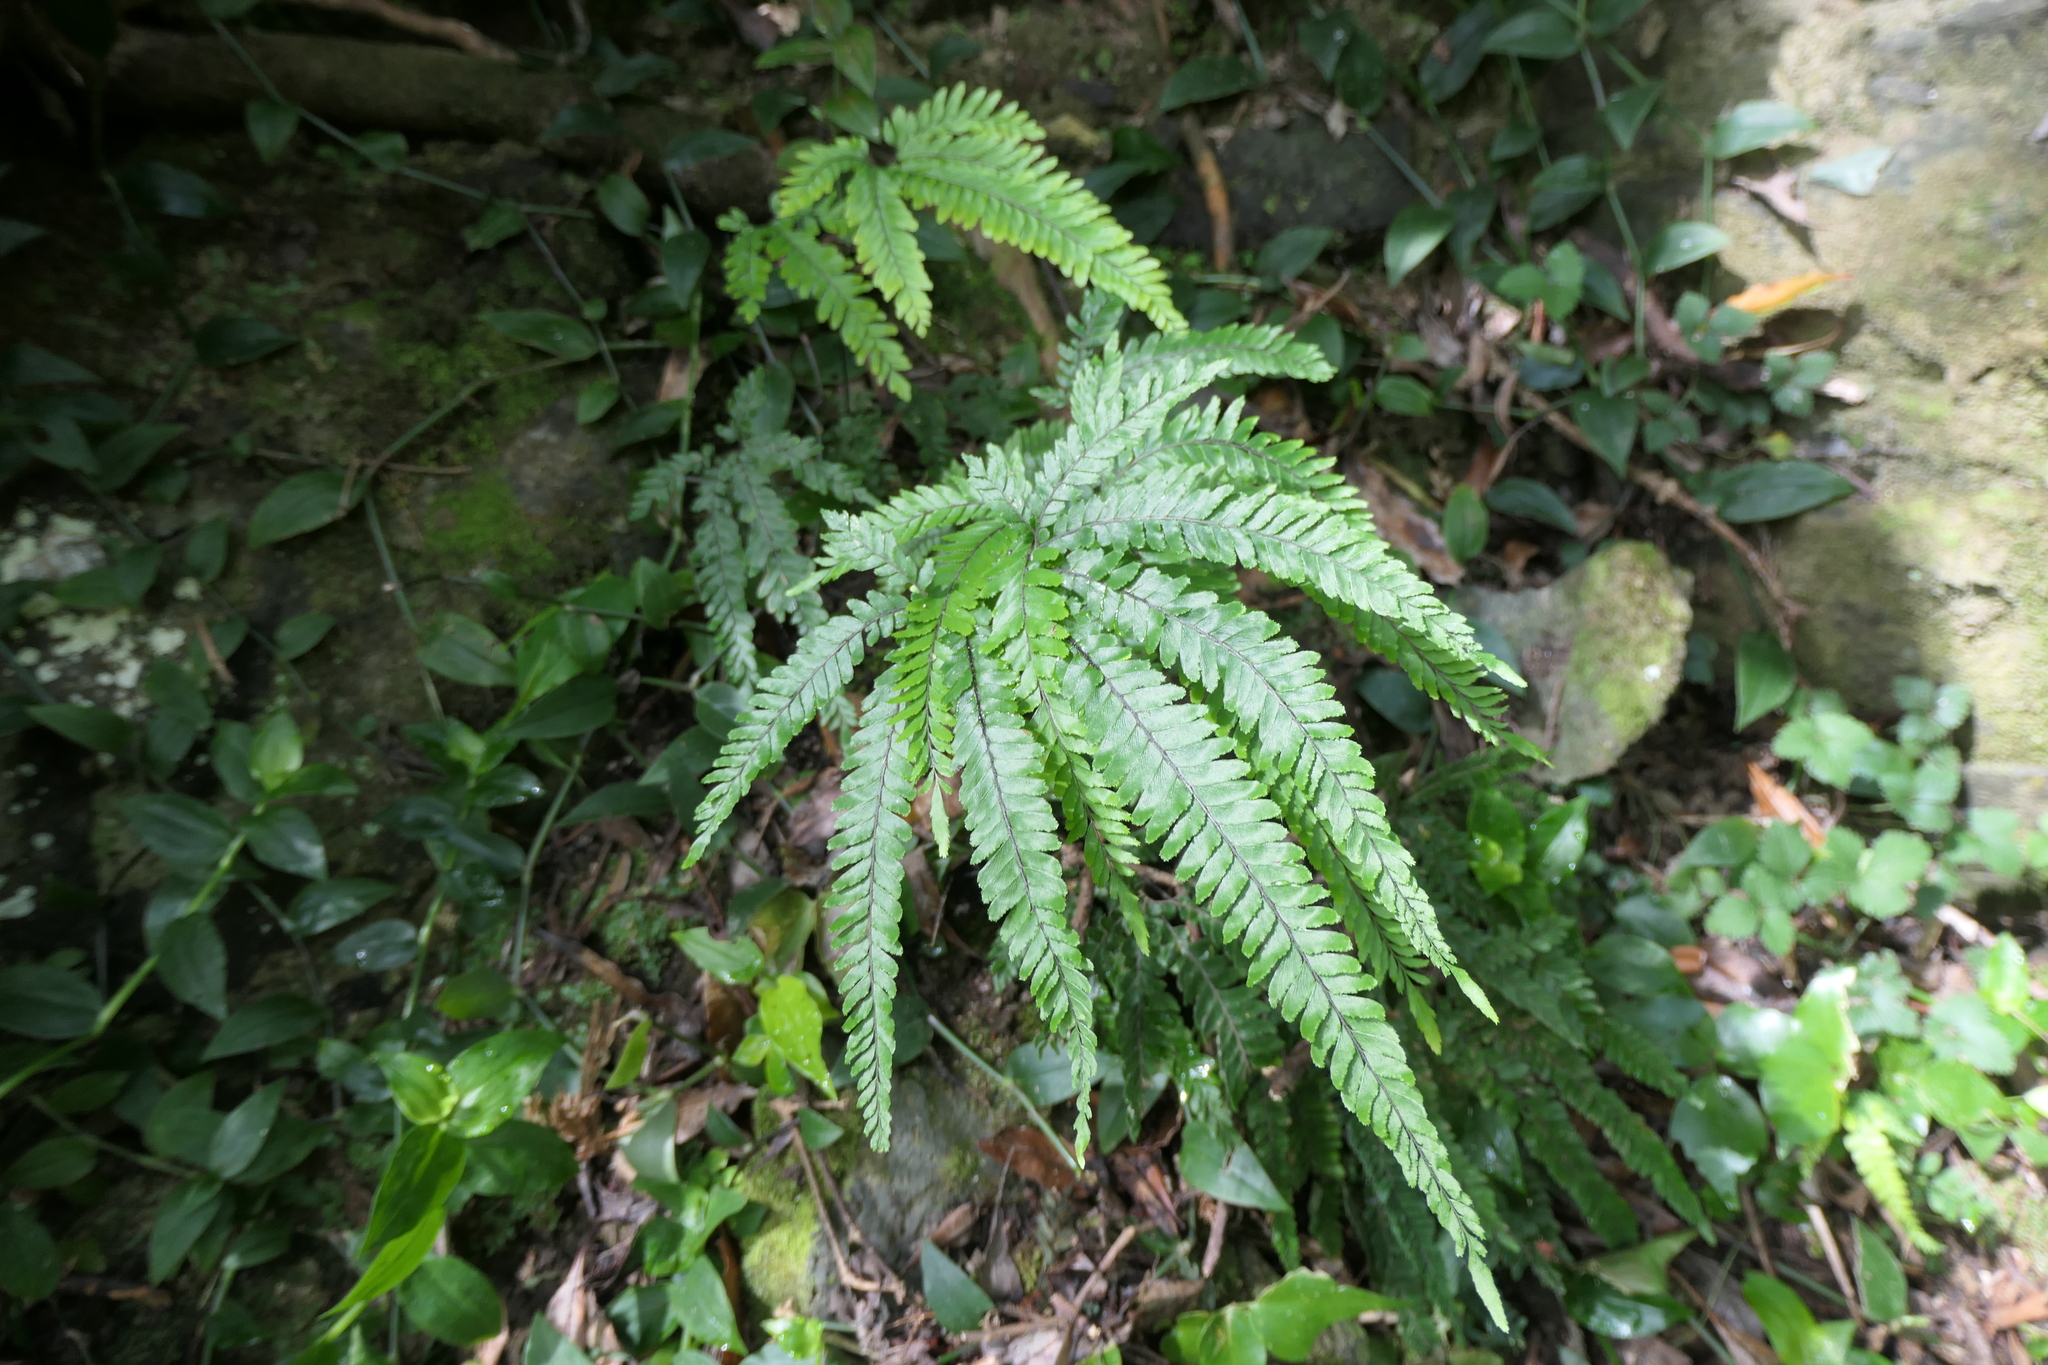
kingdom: Plantae
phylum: Tracheophyta
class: Polypodiopsida
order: Polypodiales
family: Pteridaceae
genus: Adiantum
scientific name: Adiantum hispidulum
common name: Rough maidenhair
